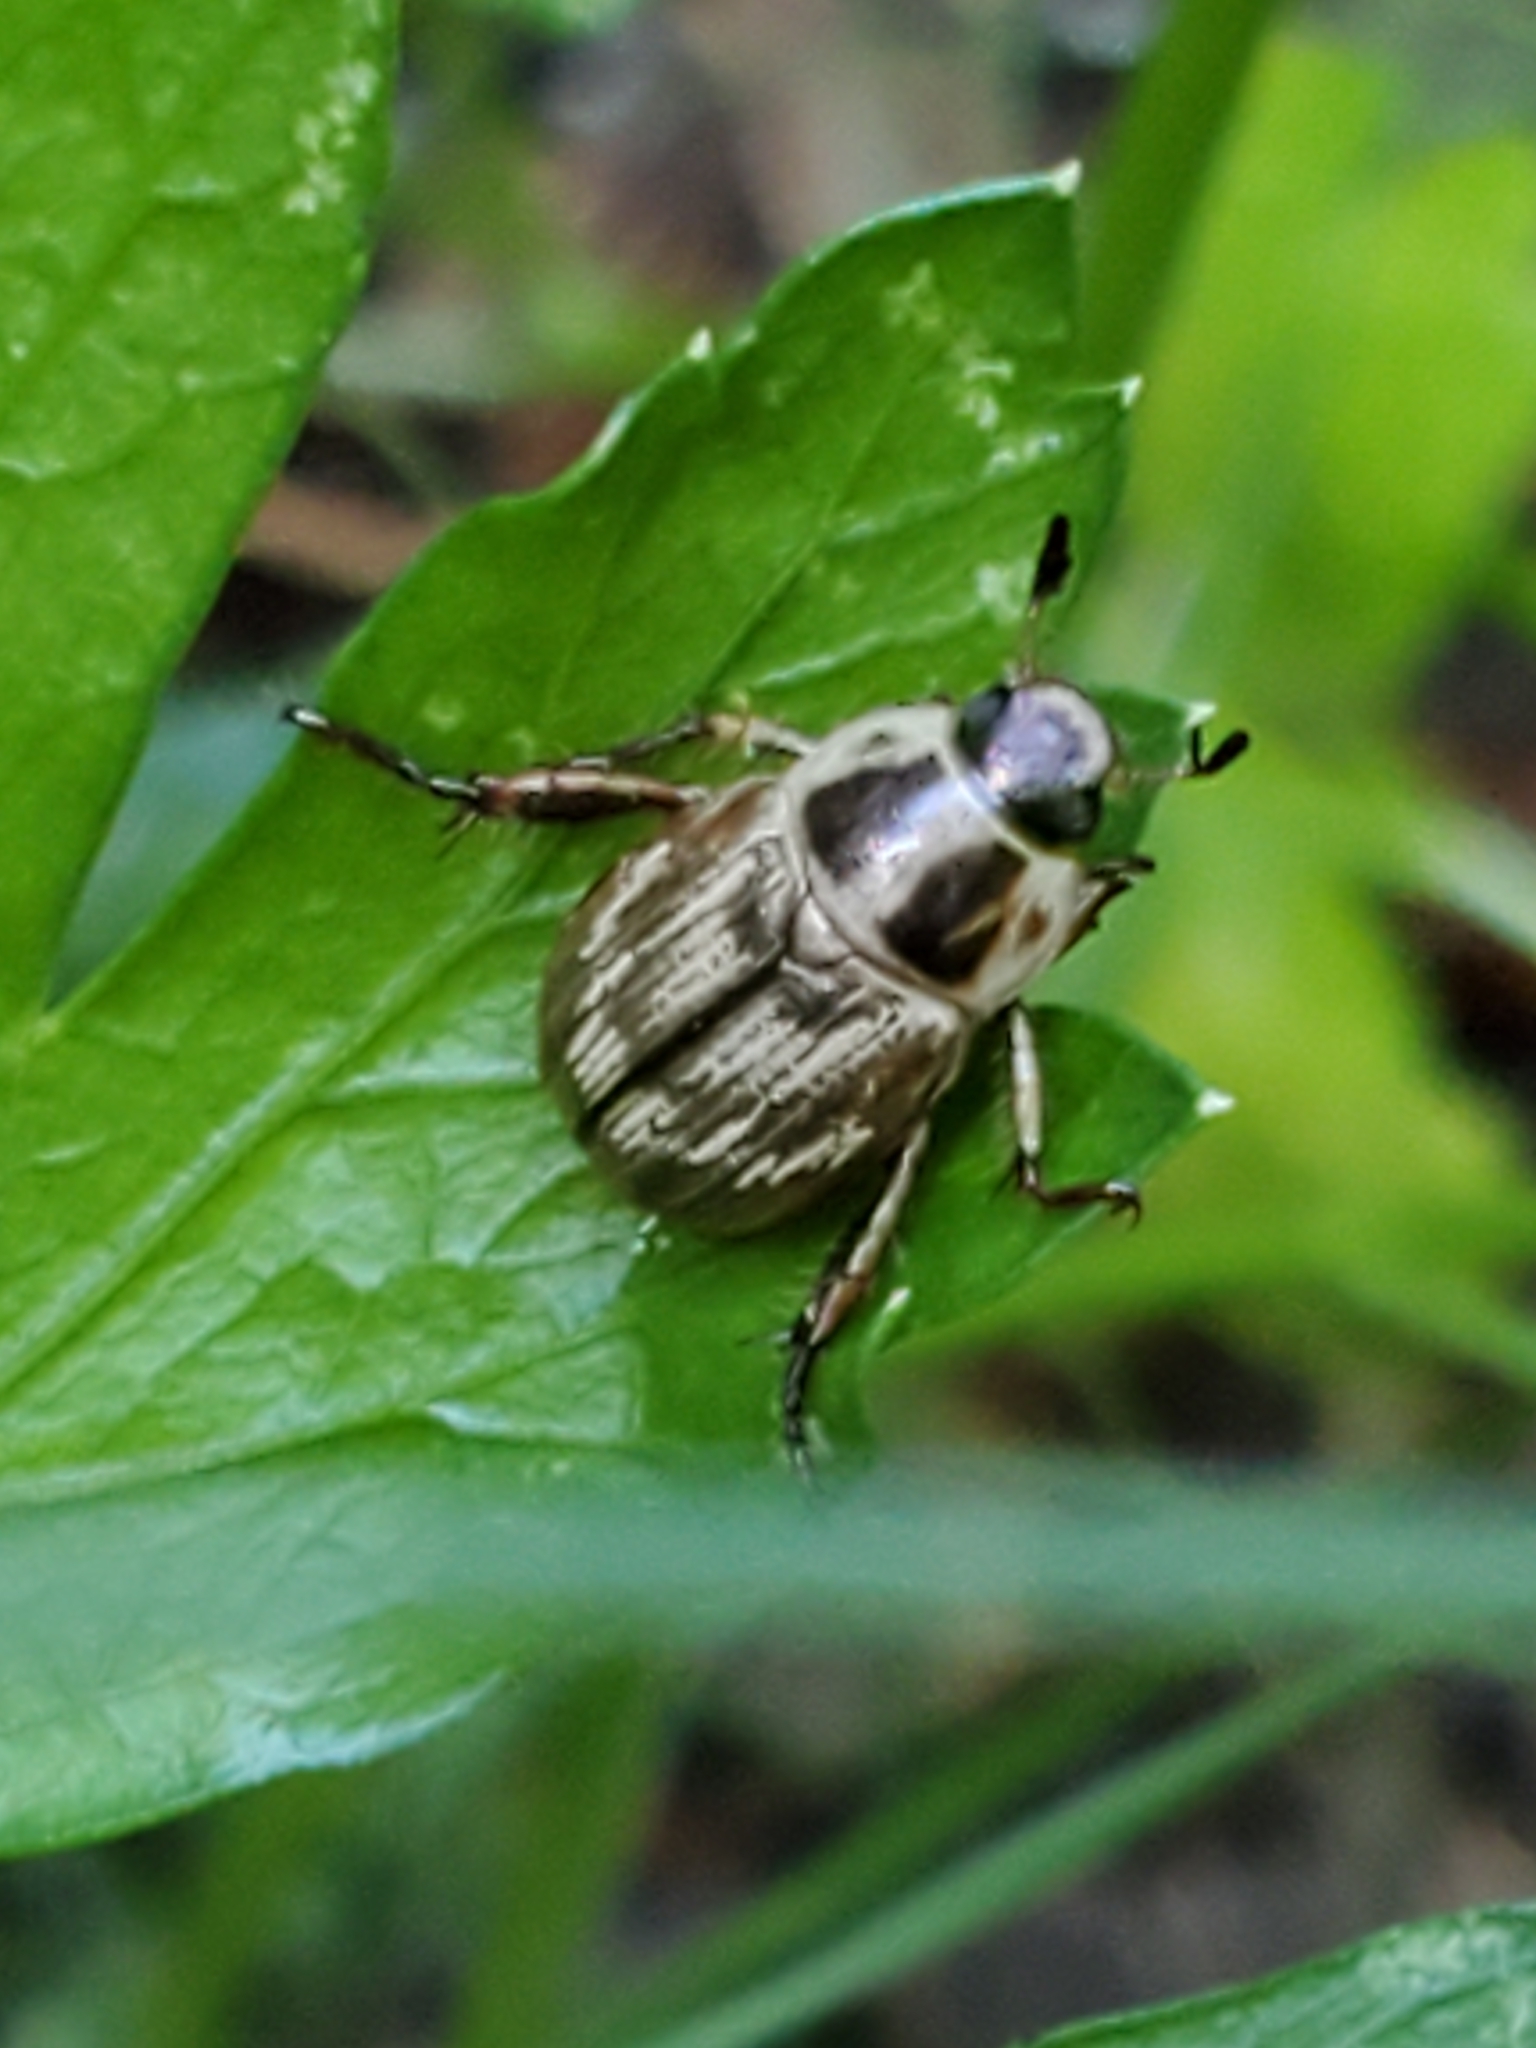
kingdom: Animalia
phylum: Arthropoda
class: Insecta
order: Coleoptera
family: Scarabaeidae
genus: Exomala
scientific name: Exomala orientalis
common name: Oriental beetle
